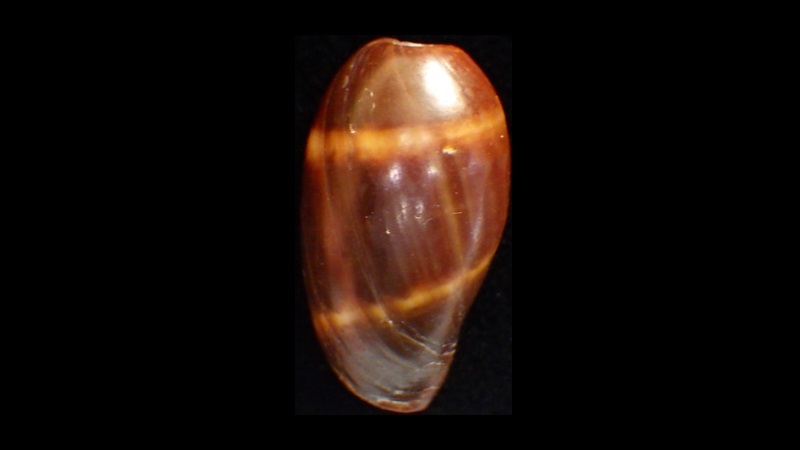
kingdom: Animalia
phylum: Mollusca
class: Gastropoda
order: Littorinimorpha
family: Cypraeidae
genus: Erronea
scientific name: Erronea onyx
